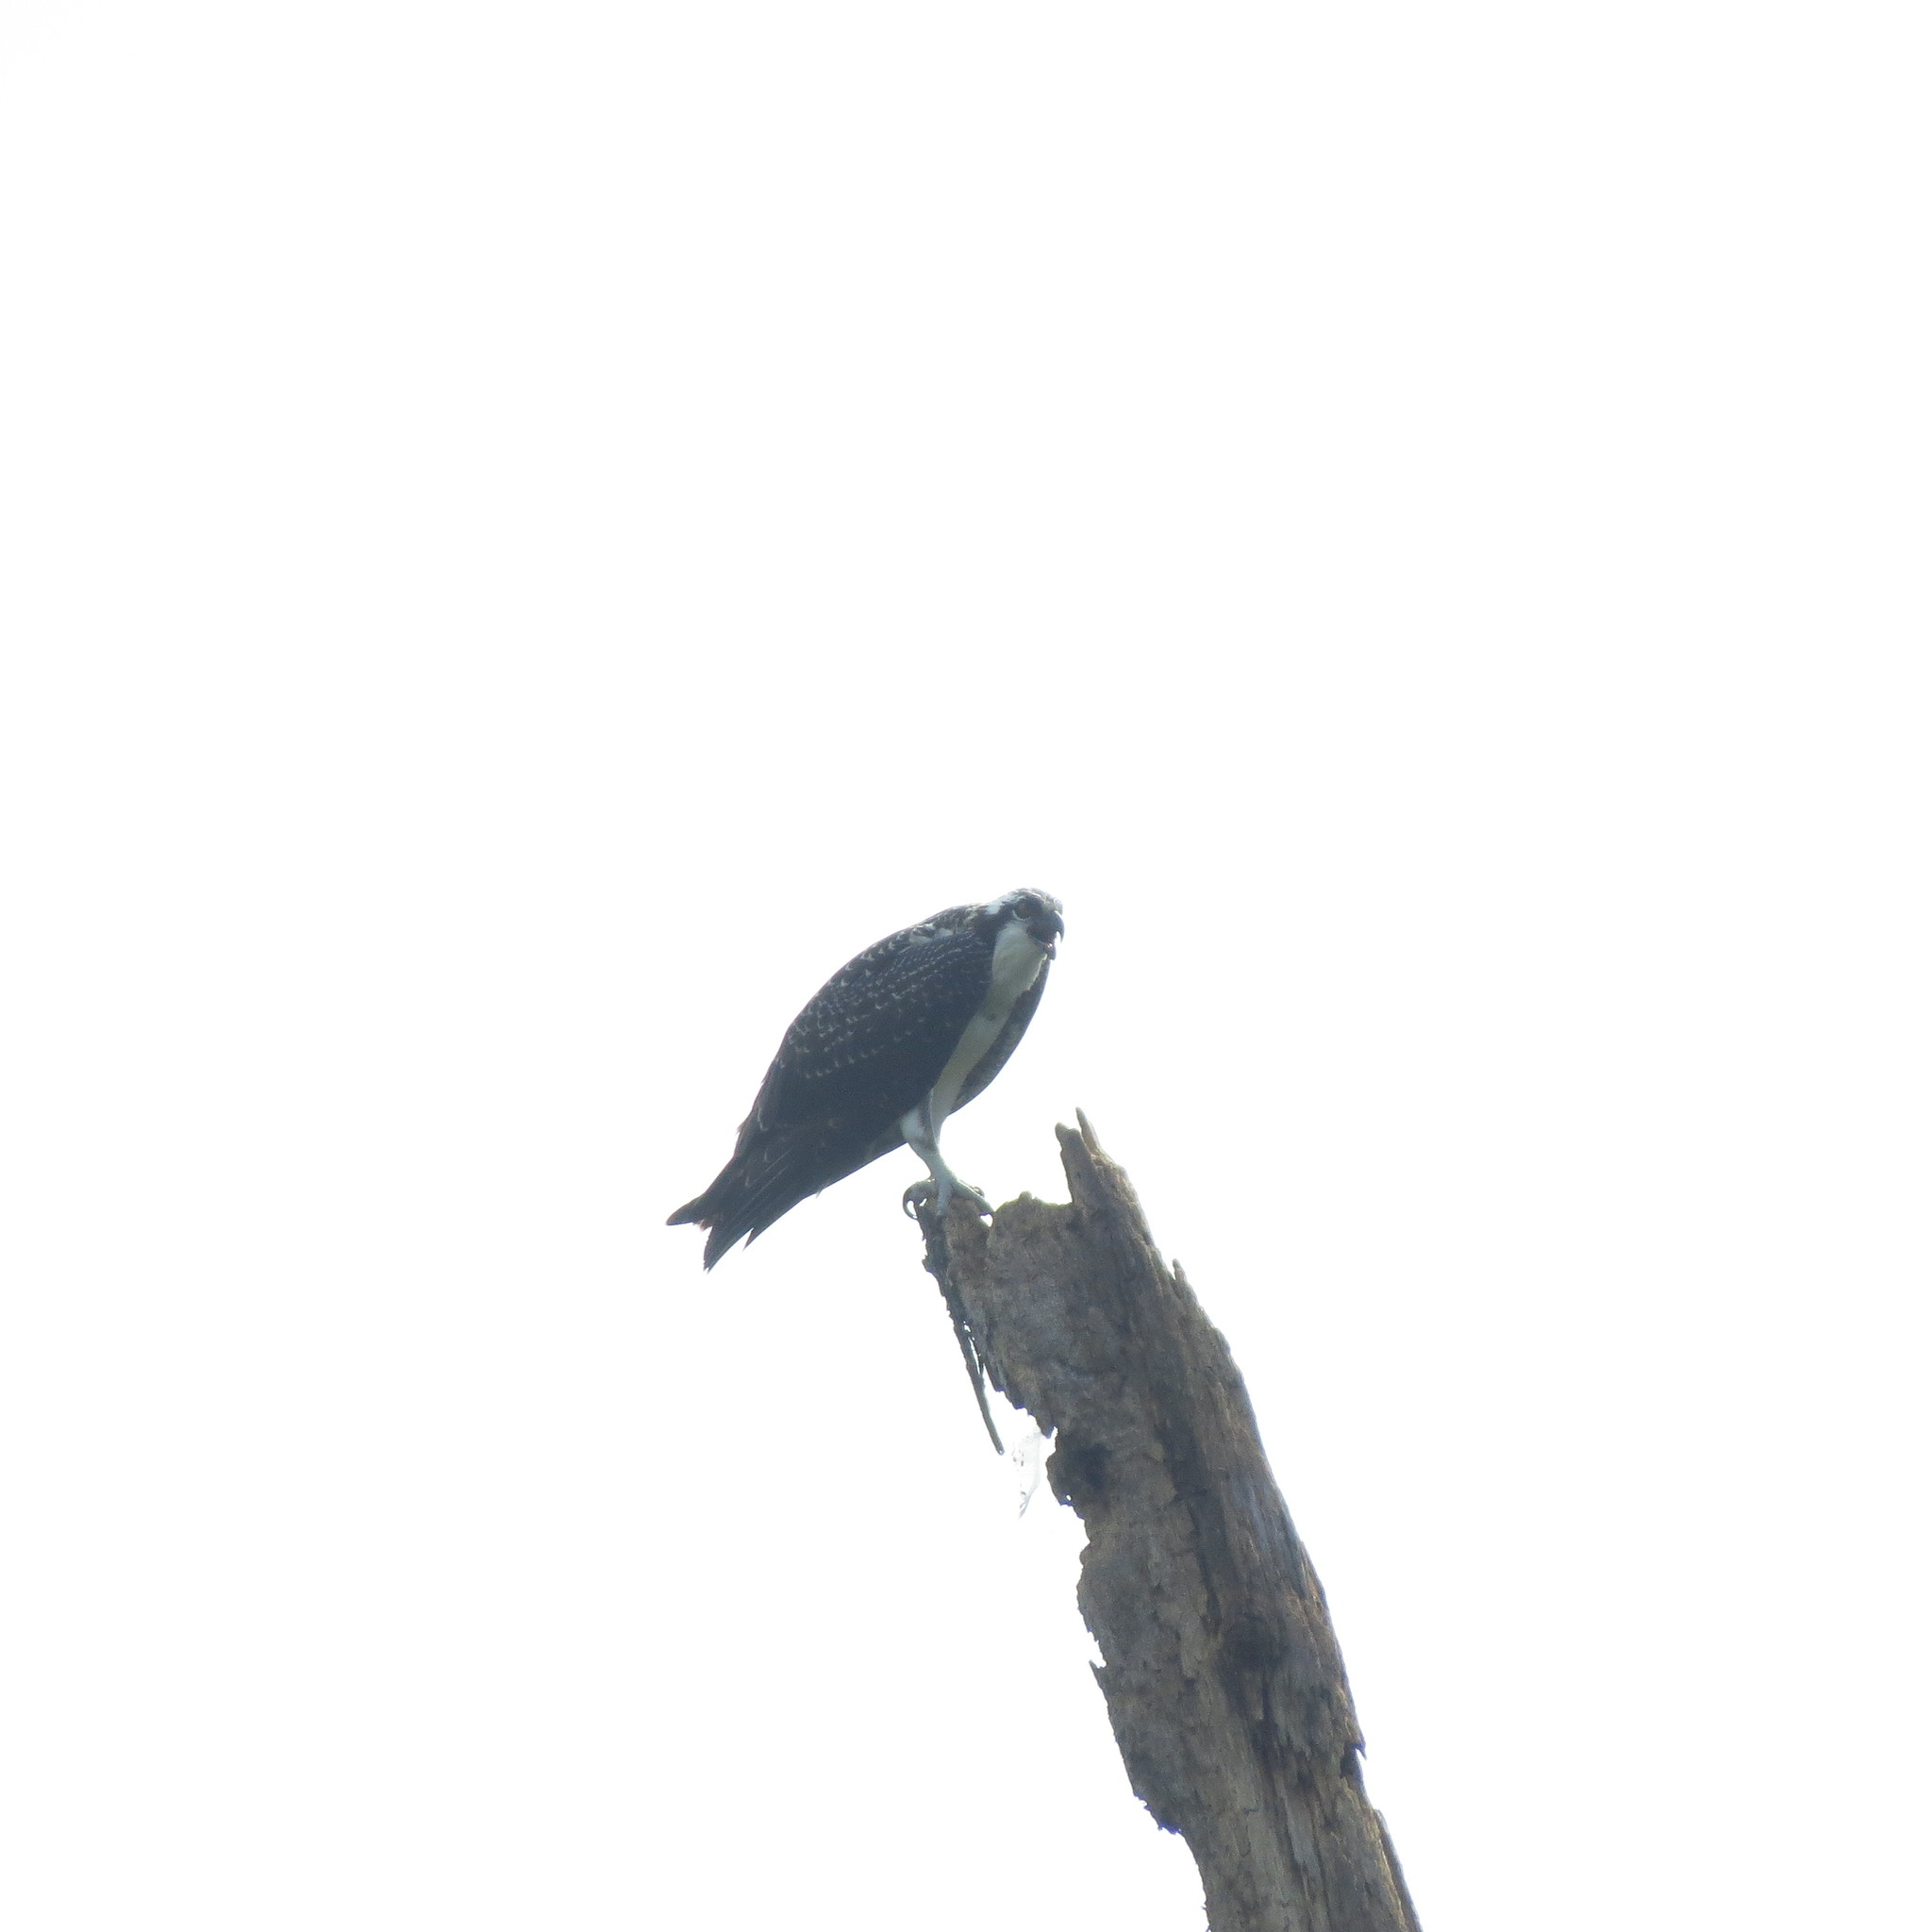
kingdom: Animalia
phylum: Chordata
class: Aves
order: Accipitriformes
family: Pandionidae
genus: Pandion
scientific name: Pandion haliaetus
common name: Osprey
